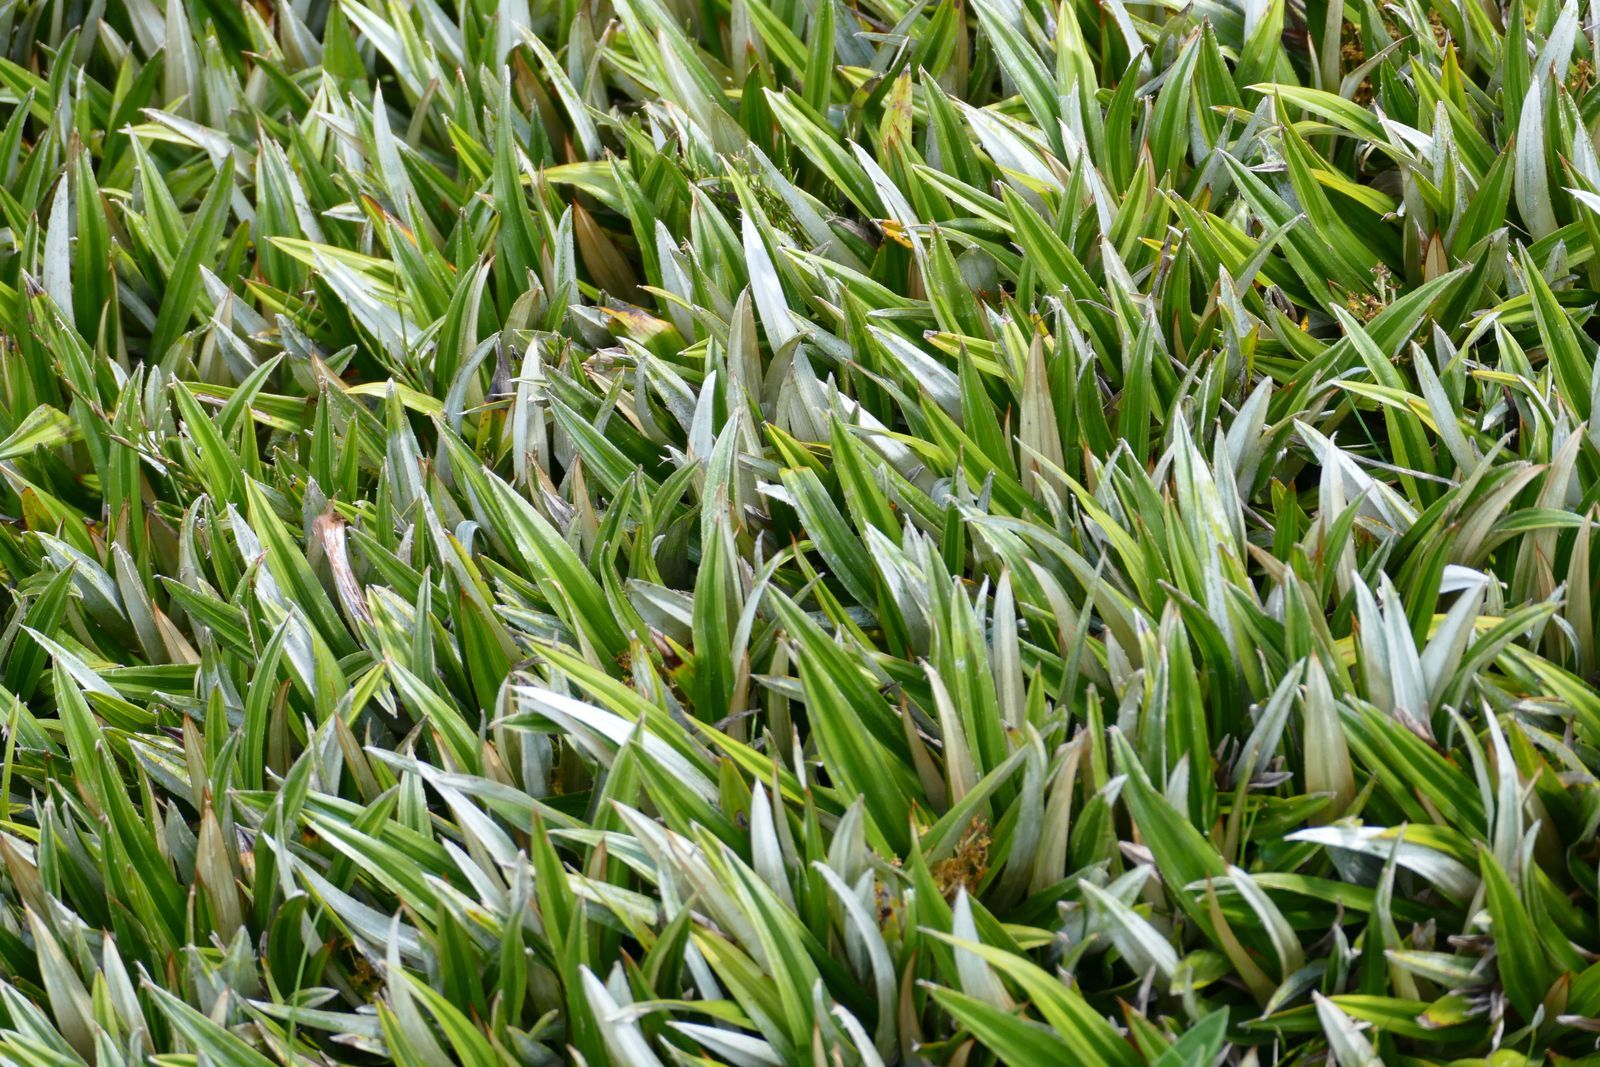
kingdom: Plantae
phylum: Tracheophyta
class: Liliopsida
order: Asparagales
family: Asteliaceae
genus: Astelia
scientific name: Astelia alpina
